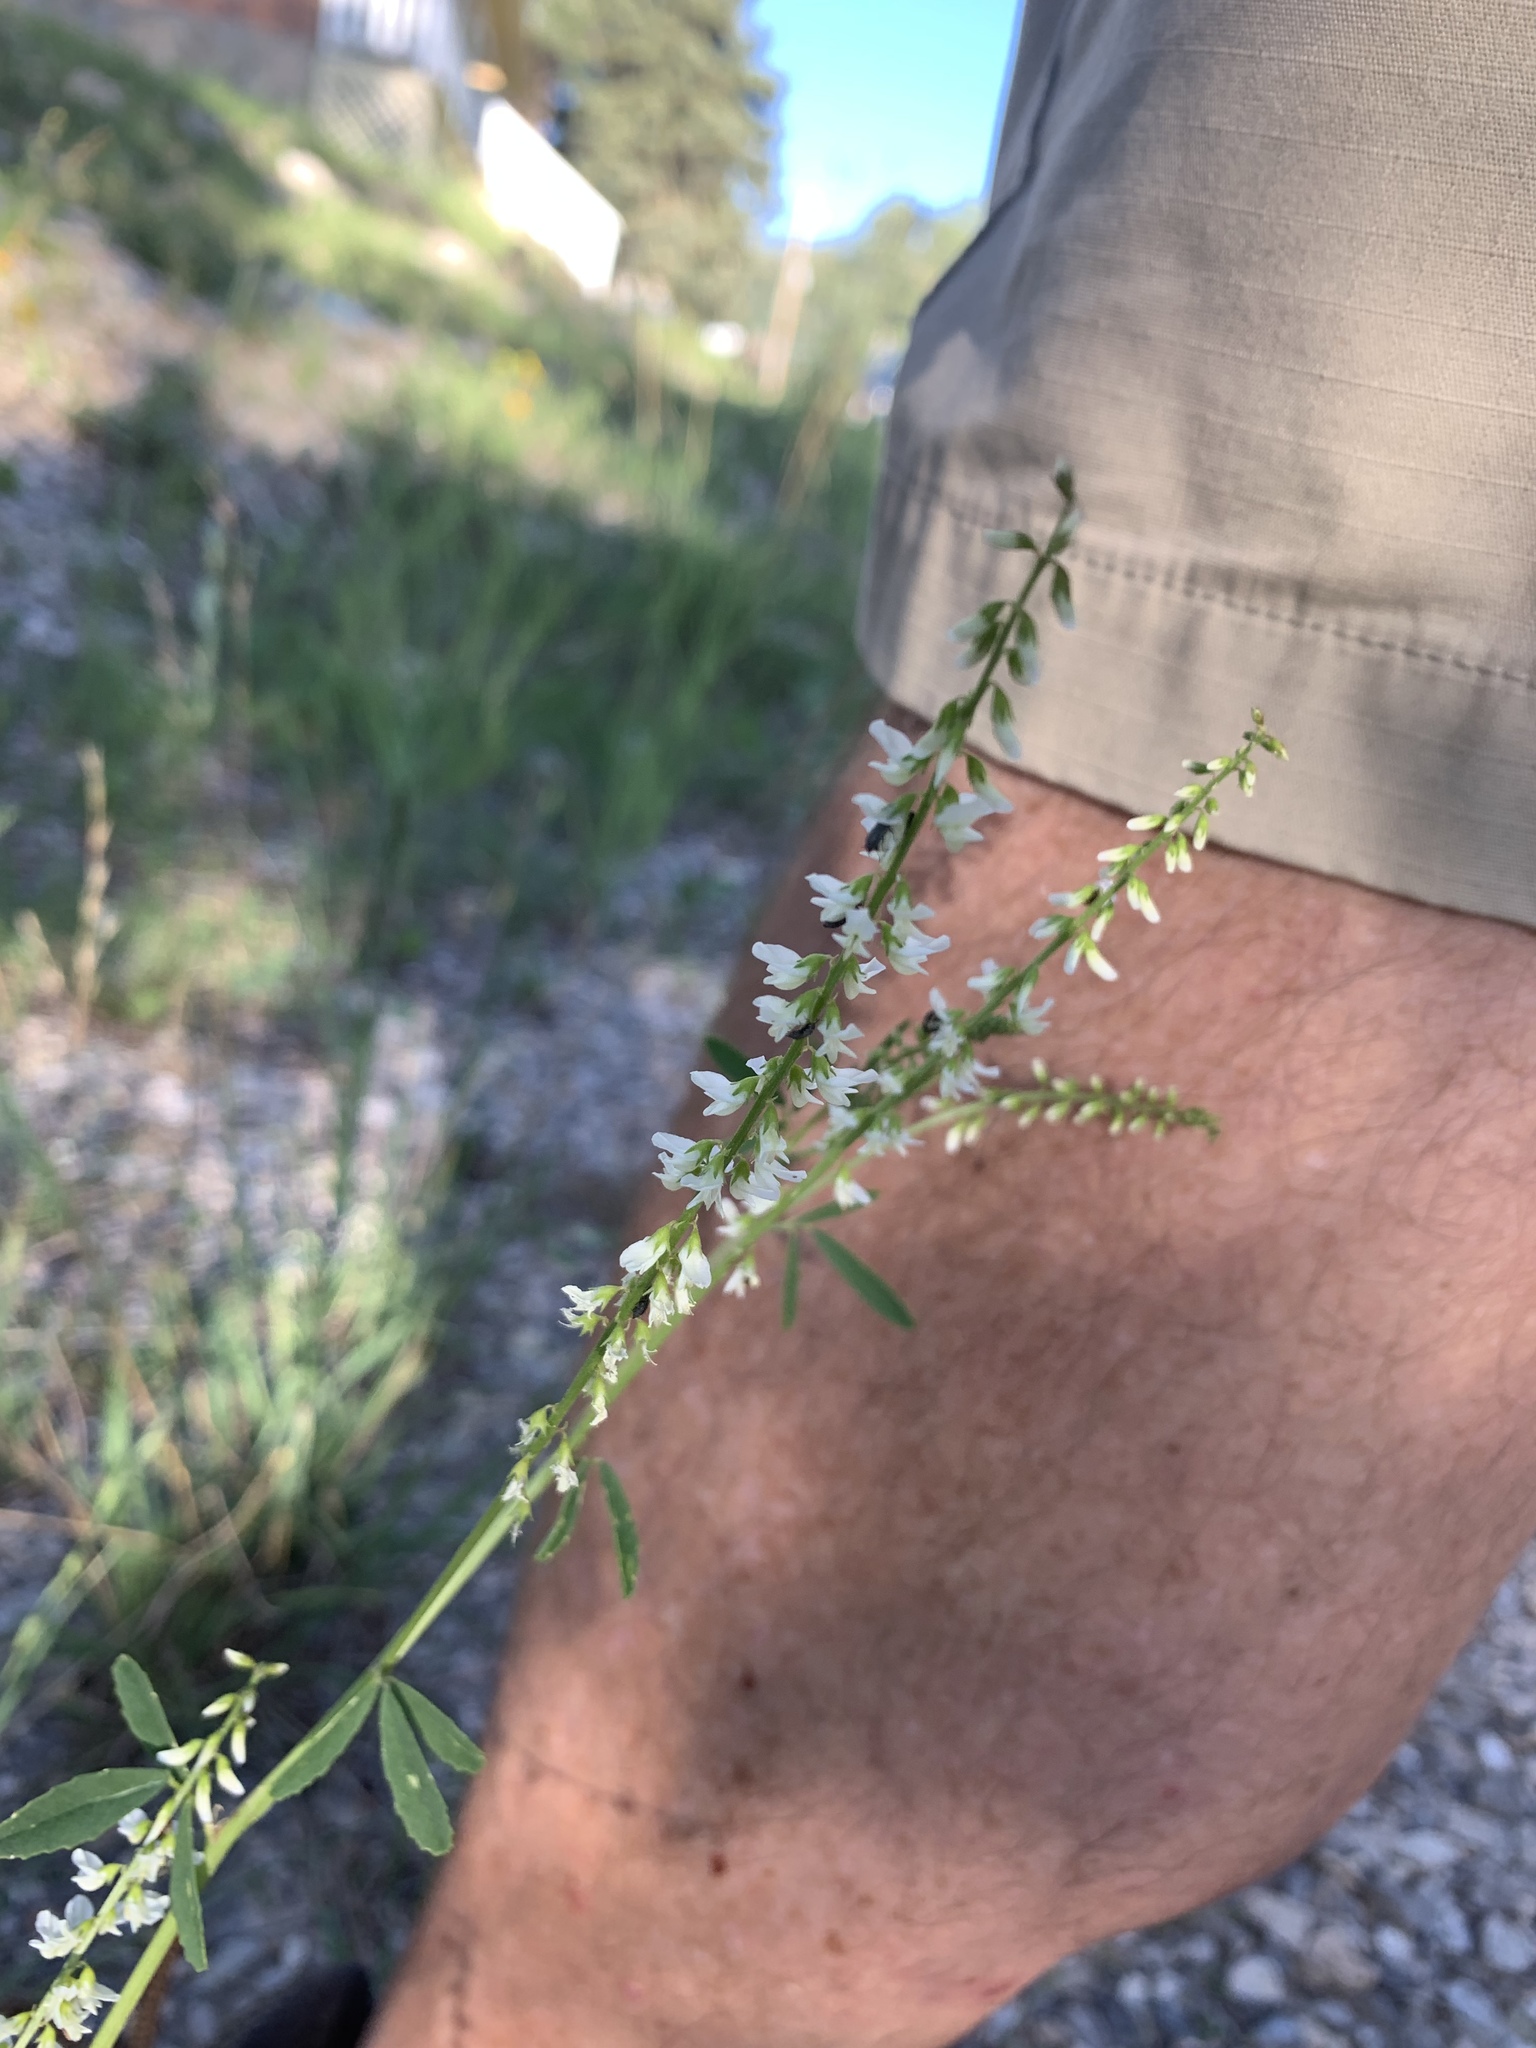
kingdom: Plantae
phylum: Tracheophyta
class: Magnoliopsida
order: Fabales
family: Fabaceae
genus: Melilotus
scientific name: Melilotus albus
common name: White melilot
